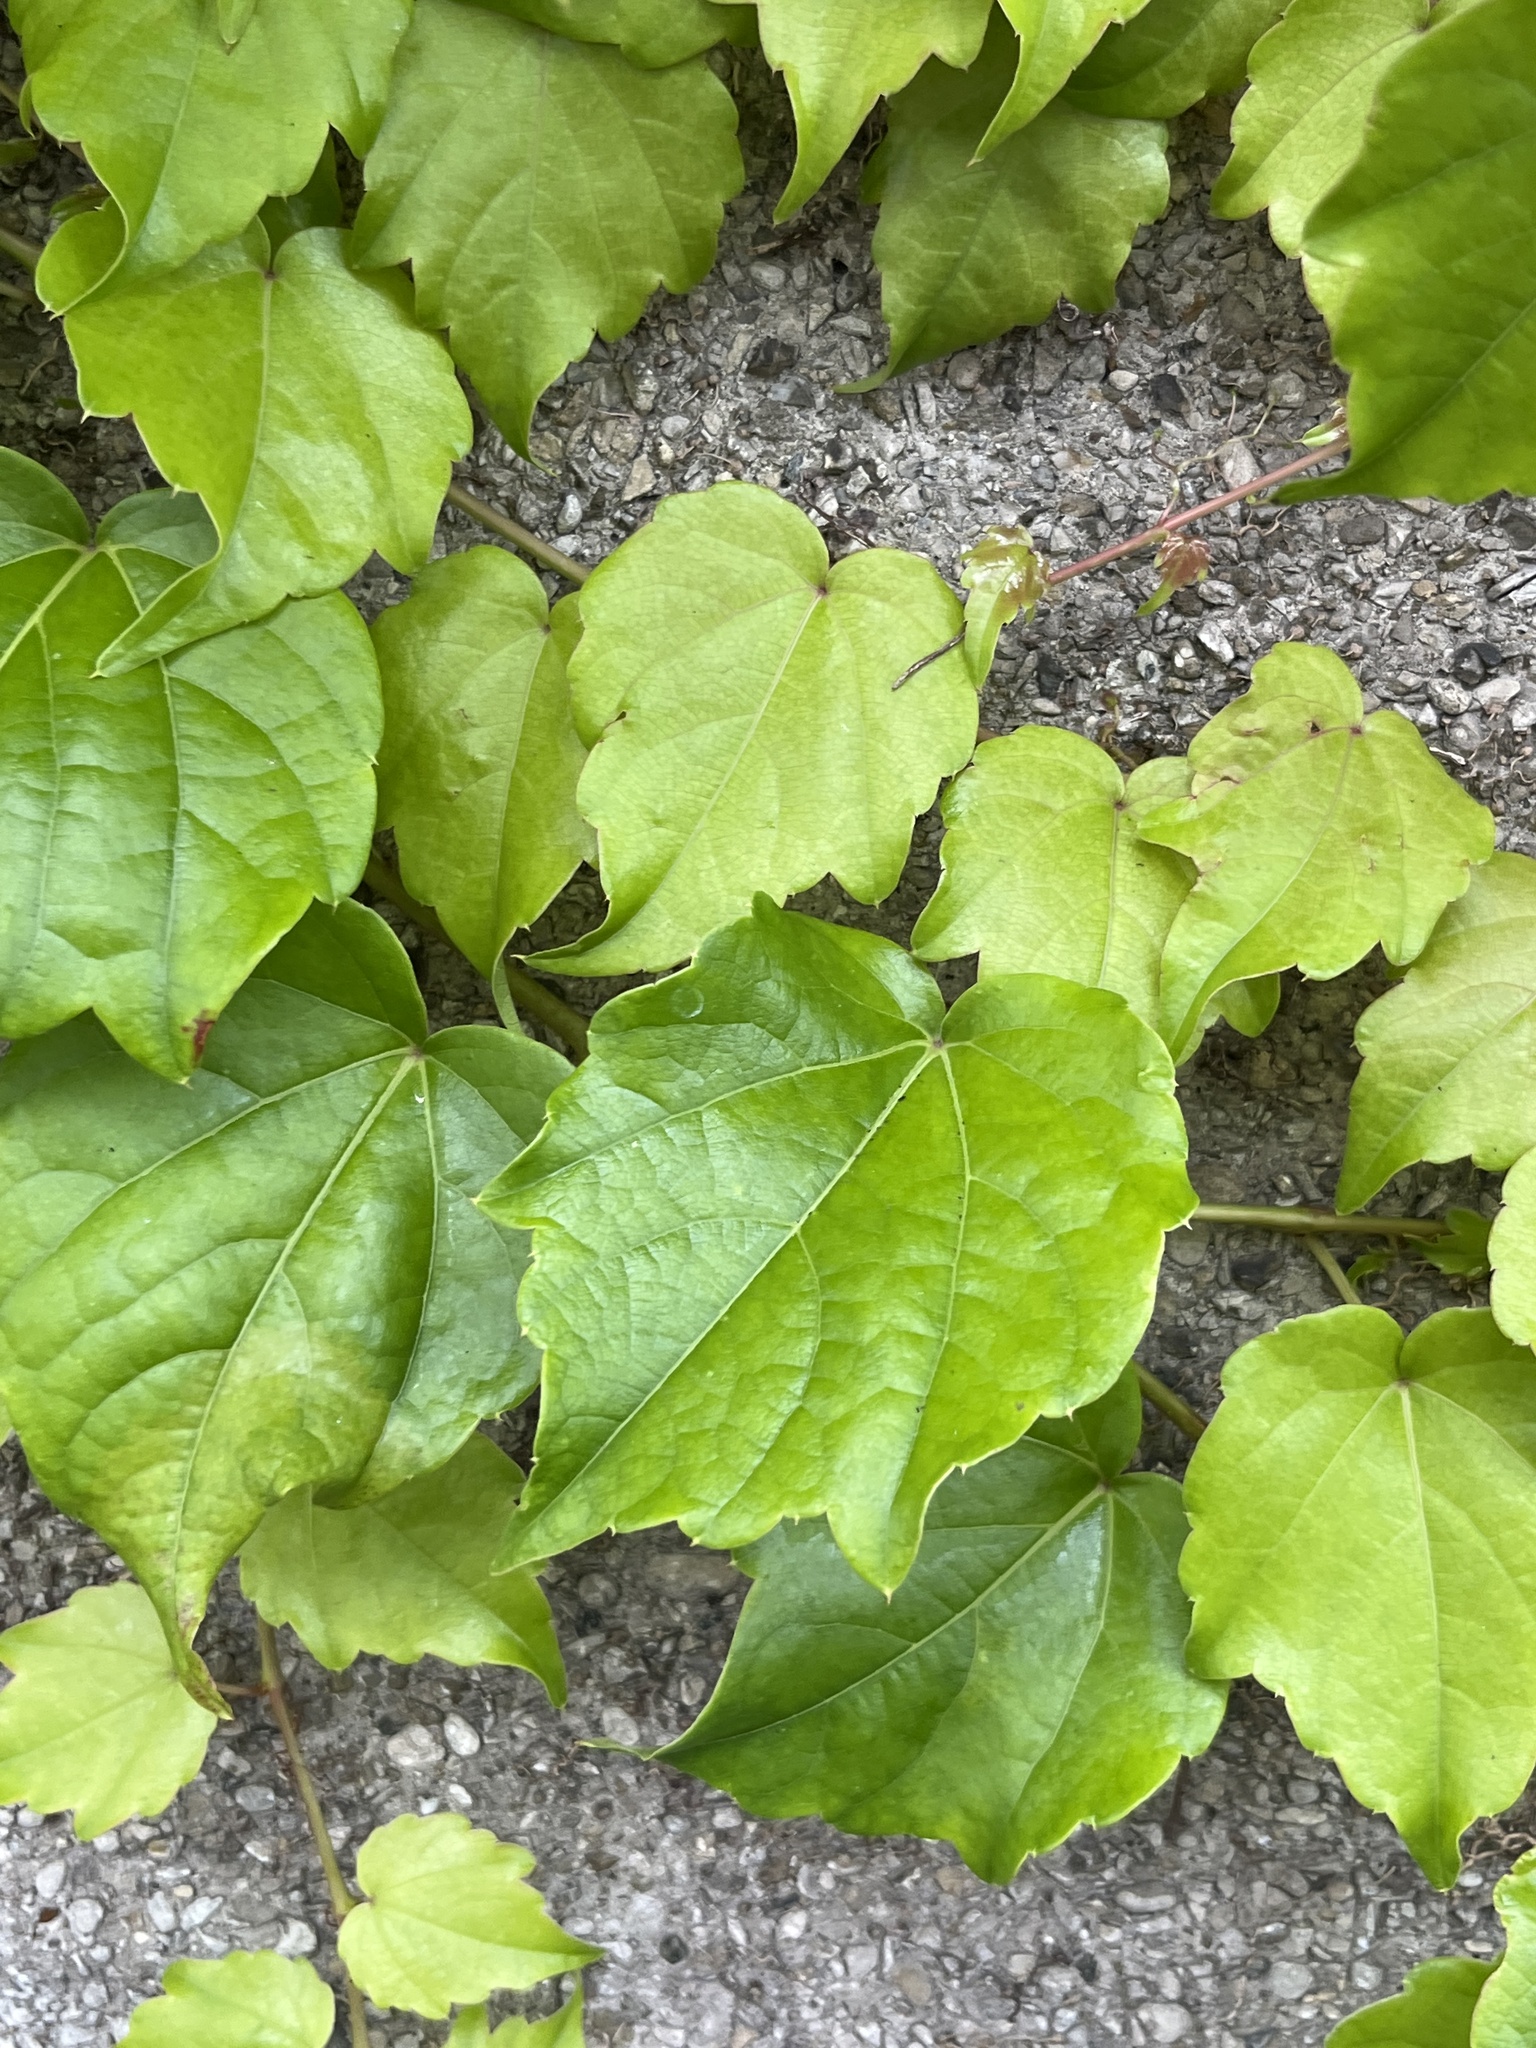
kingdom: Plantae
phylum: Tracheophyta
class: Magnoliopsida
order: Vitales
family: Vitaceae
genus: Parthenocissus
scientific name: Parthenocissus tricuspidata
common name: Boston ivy
